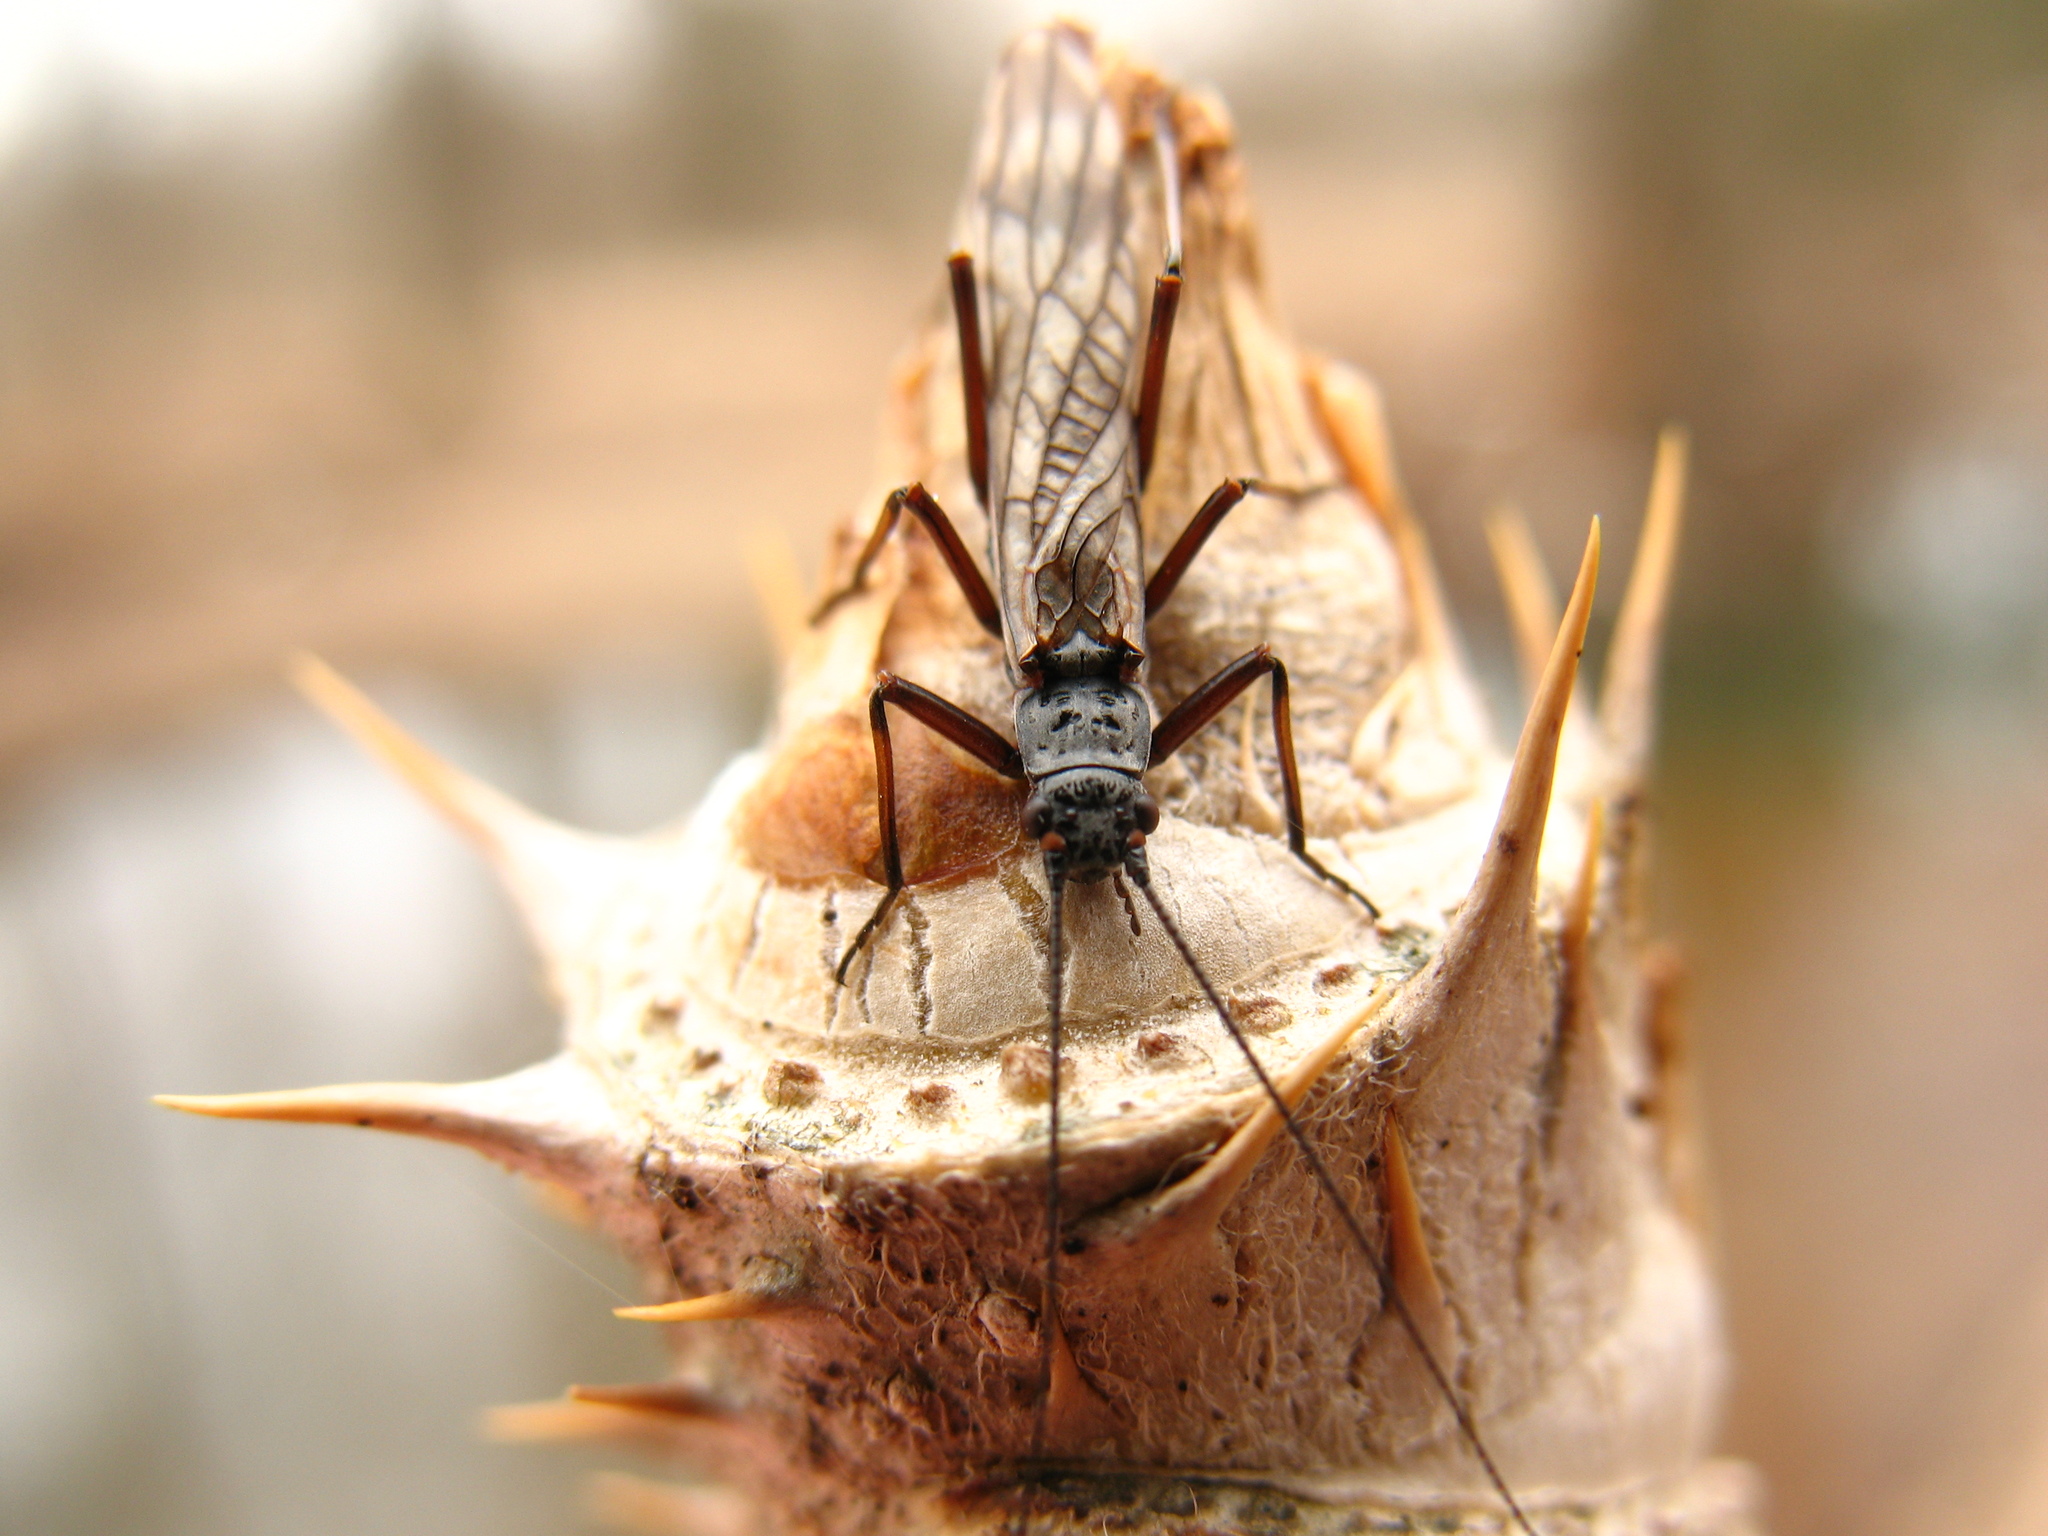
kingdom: Plantae
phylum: Tracheophyta
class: Magnoliopsida
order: Apiales
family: Araliaceae
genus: Aralia
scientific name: Aralia elata
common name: Japanese angelica-tree
